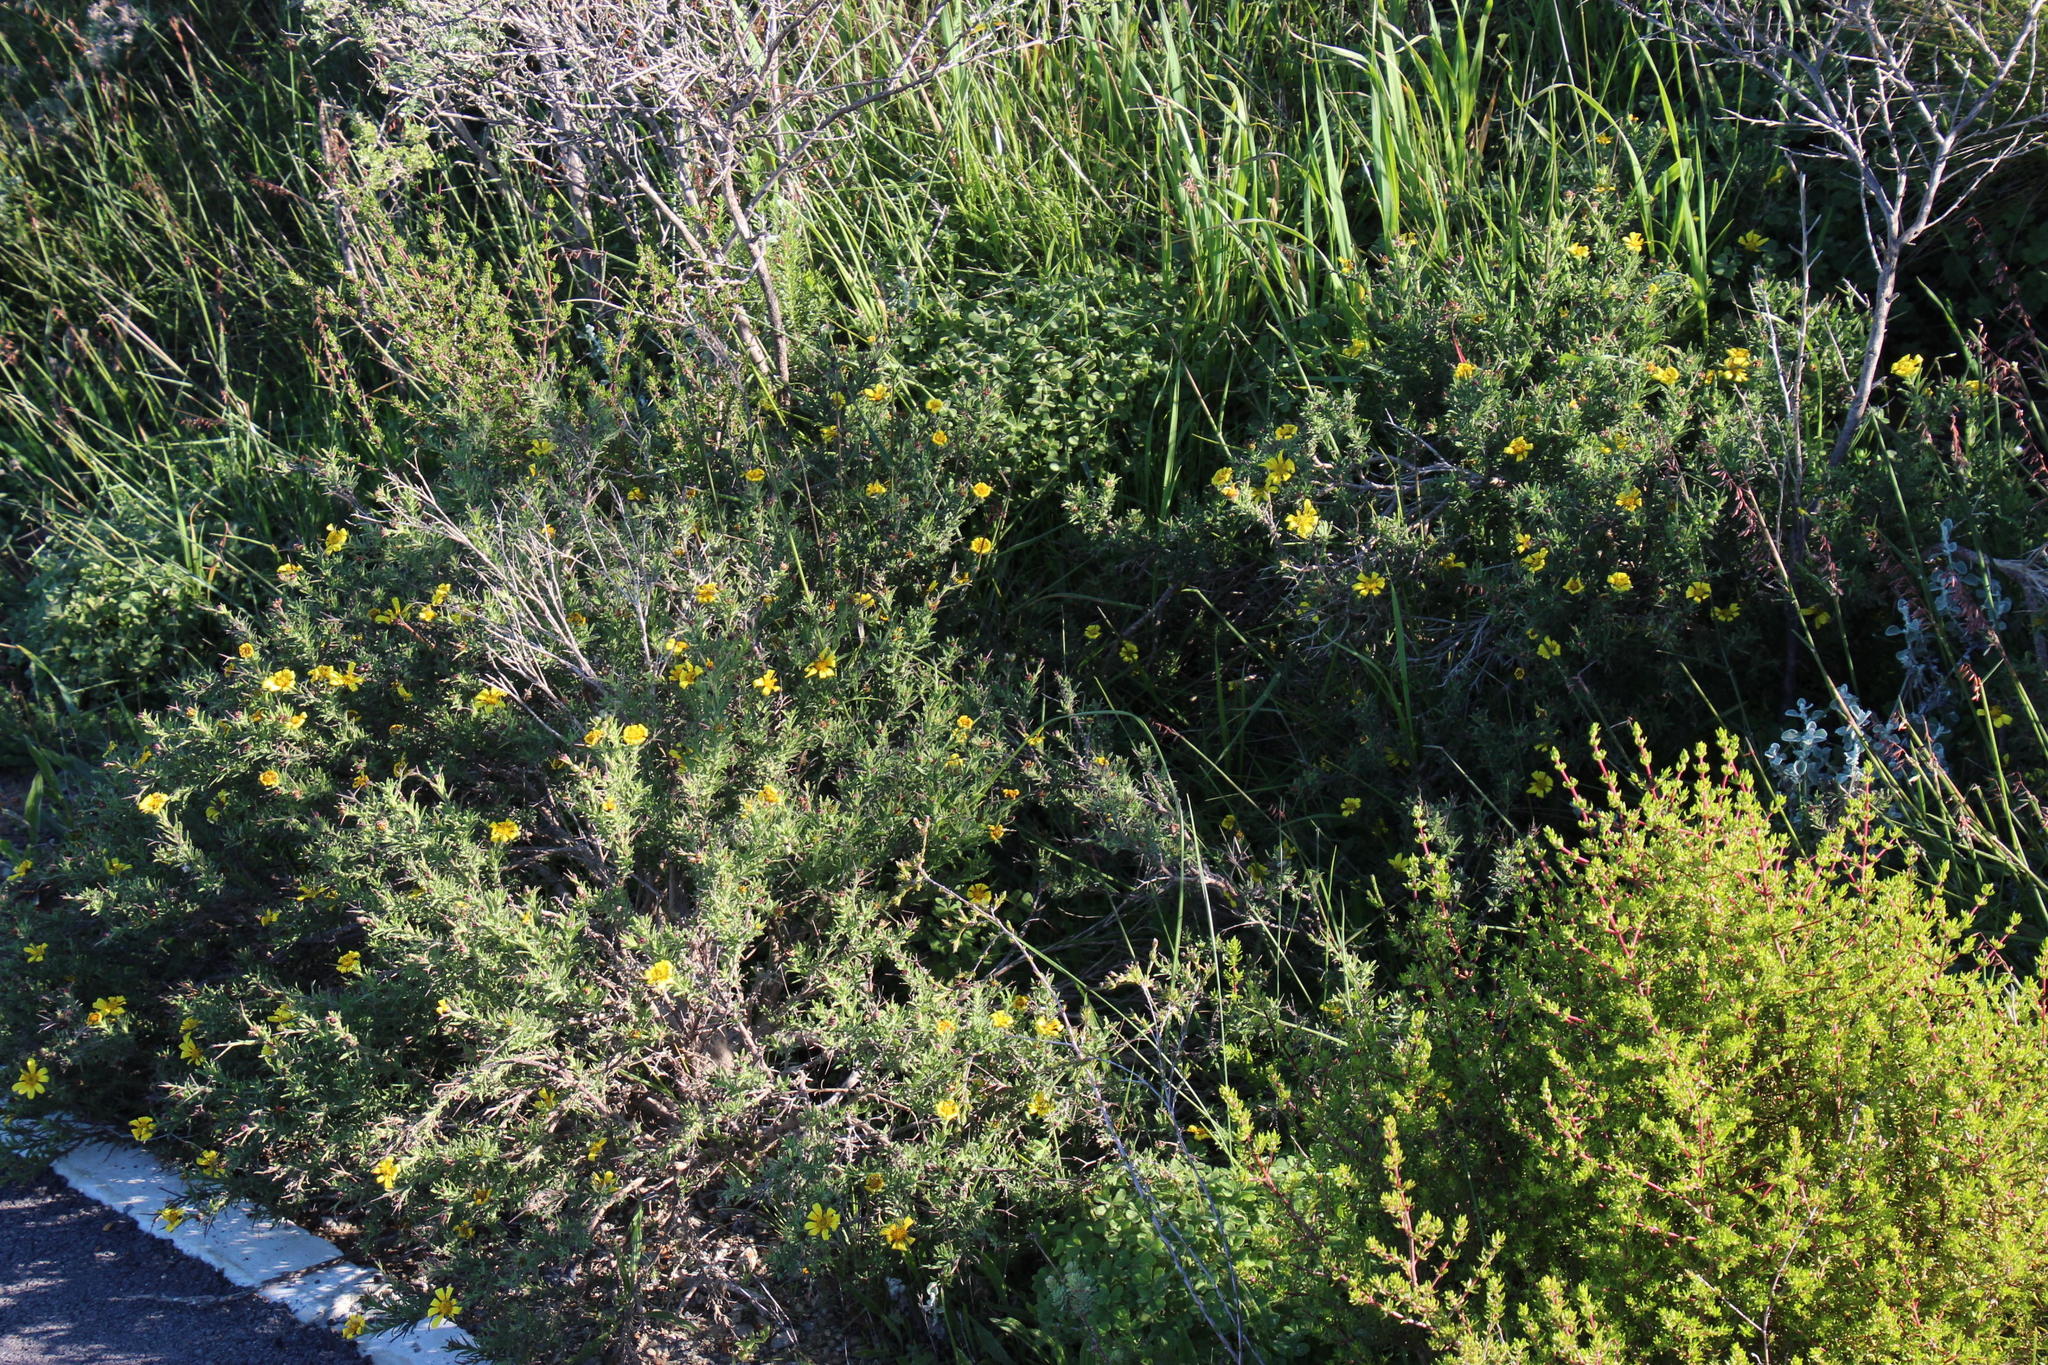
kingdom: Plantae
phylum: Tracheophyta
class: Magnoliopsida
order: Asterales
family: Asteraceae
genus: Osteospermum
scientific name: Osteospermum spinosum
